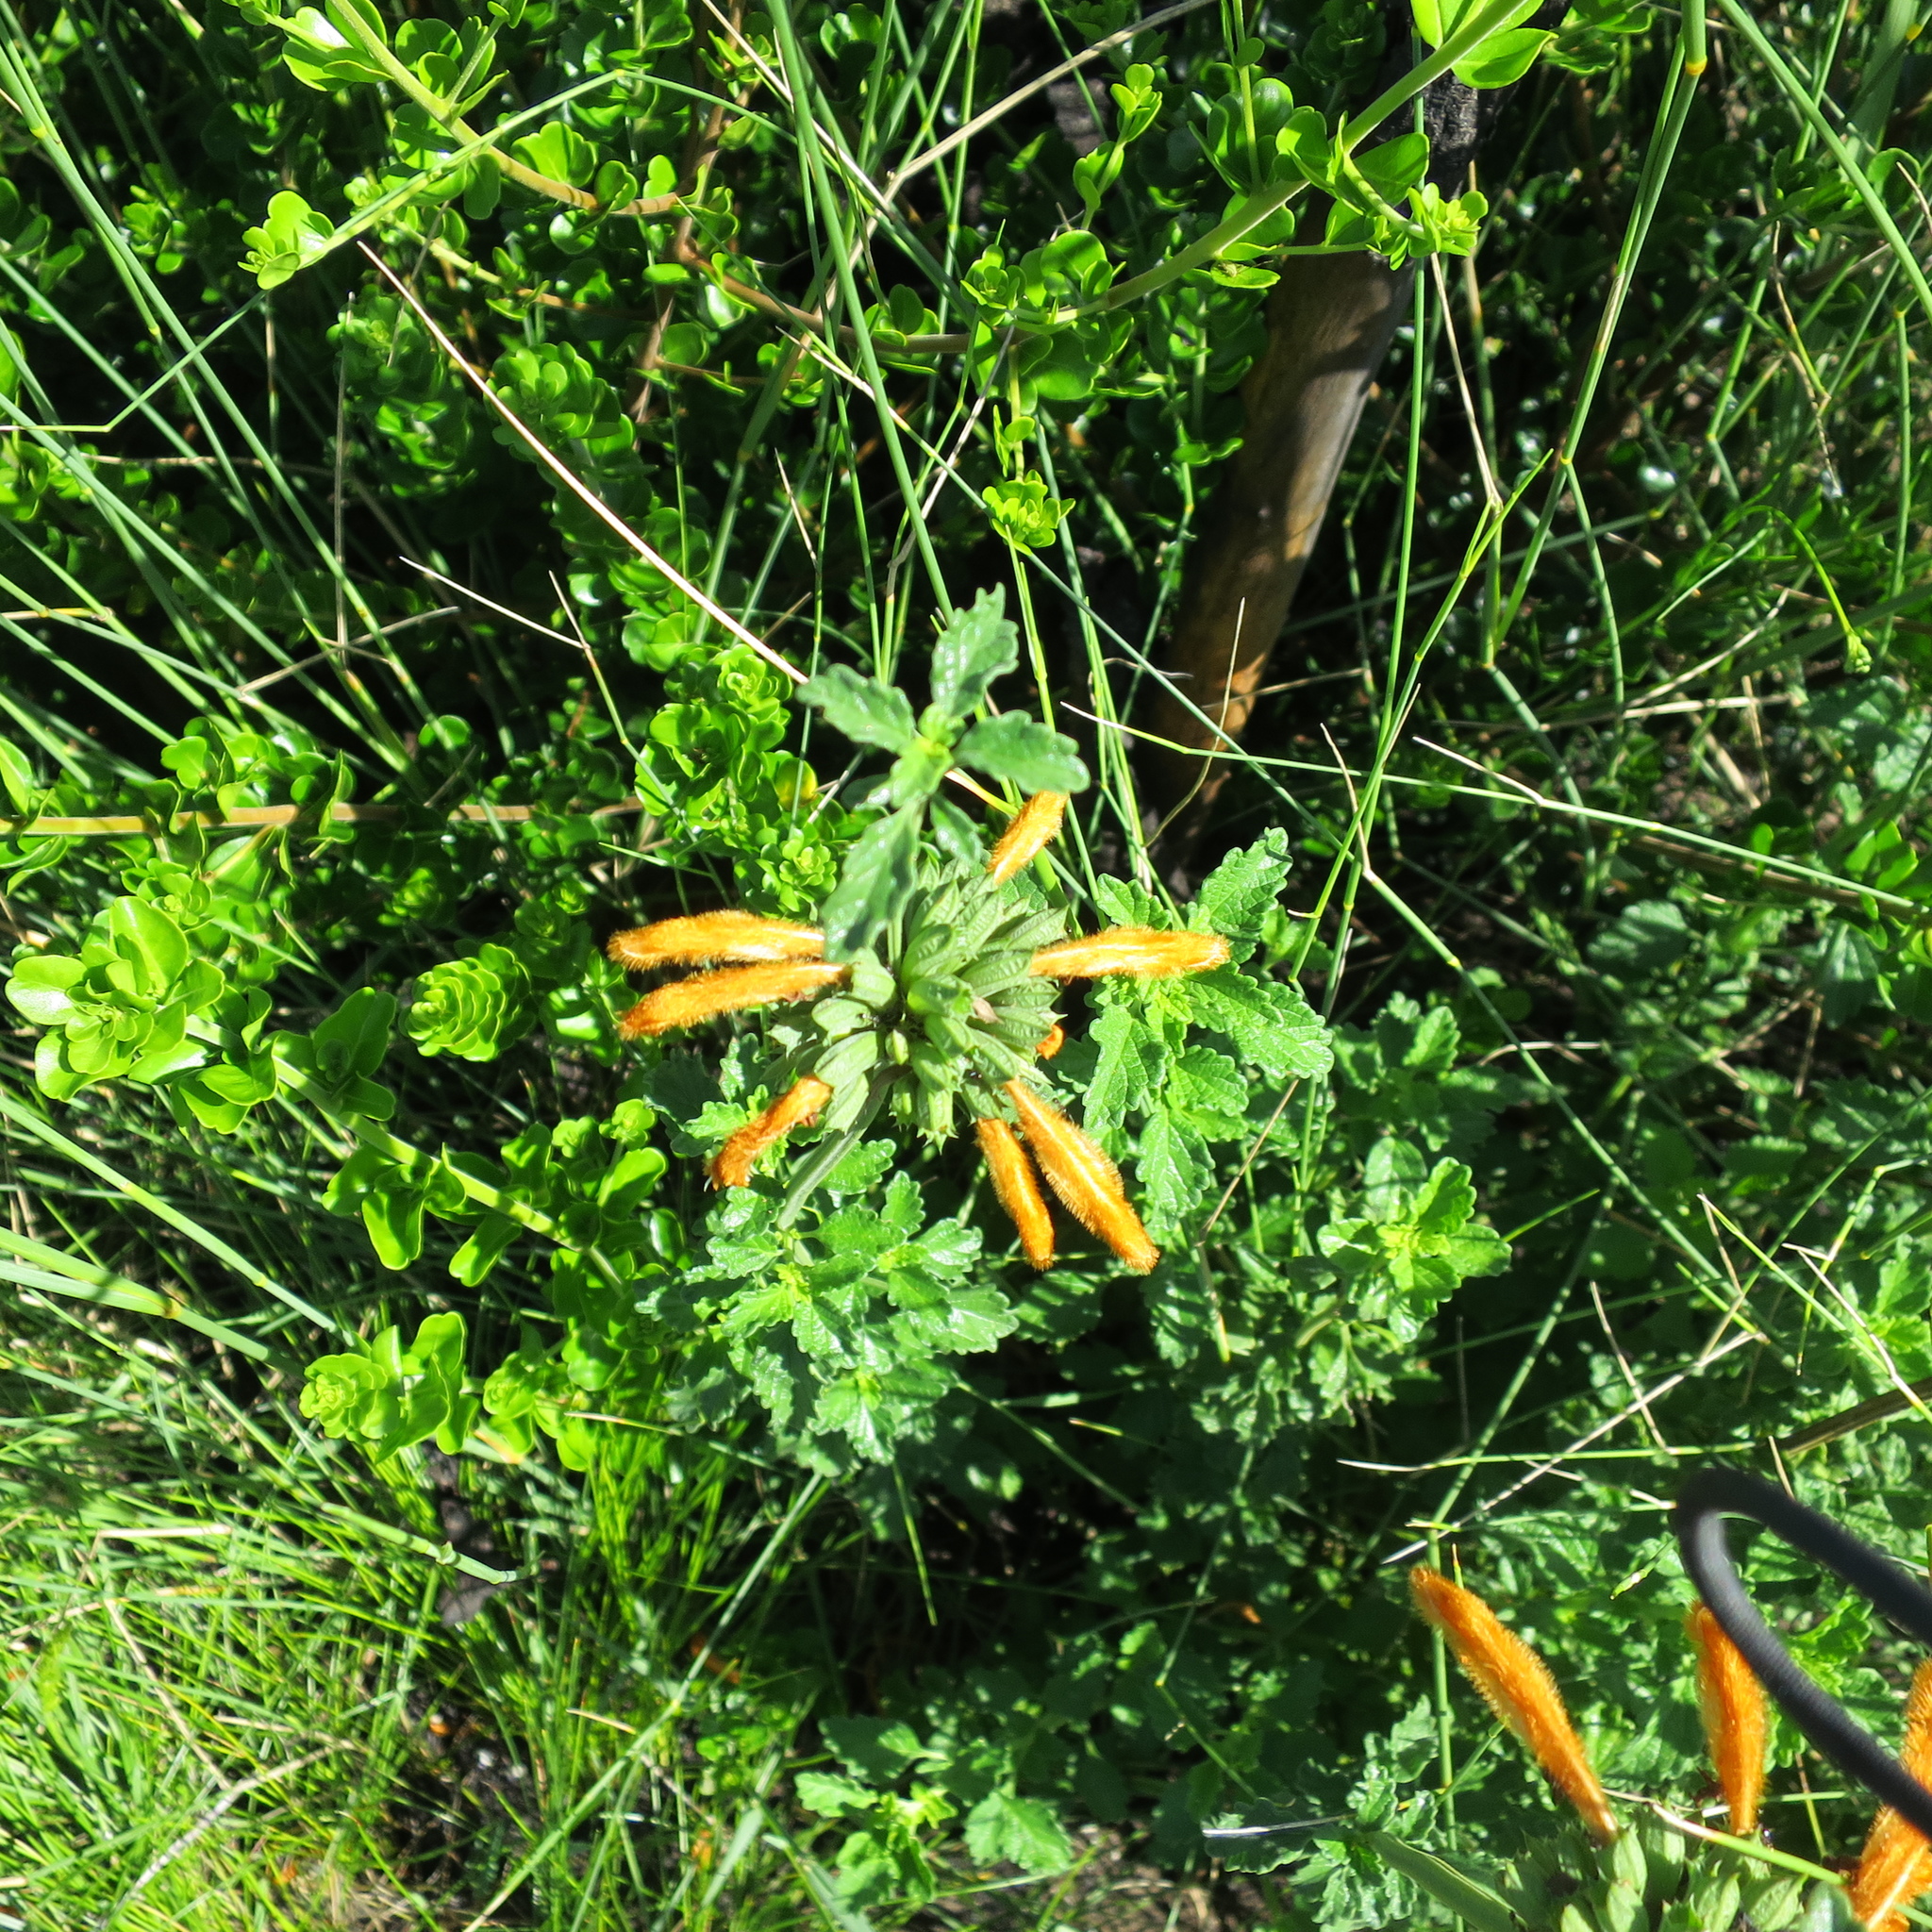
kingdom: Plantae
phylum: Tracheophyta
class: Magnoliopsida
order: Lamiales
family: Lamiaceae
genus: Leonotis
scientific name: Leonotis ocymifolia
